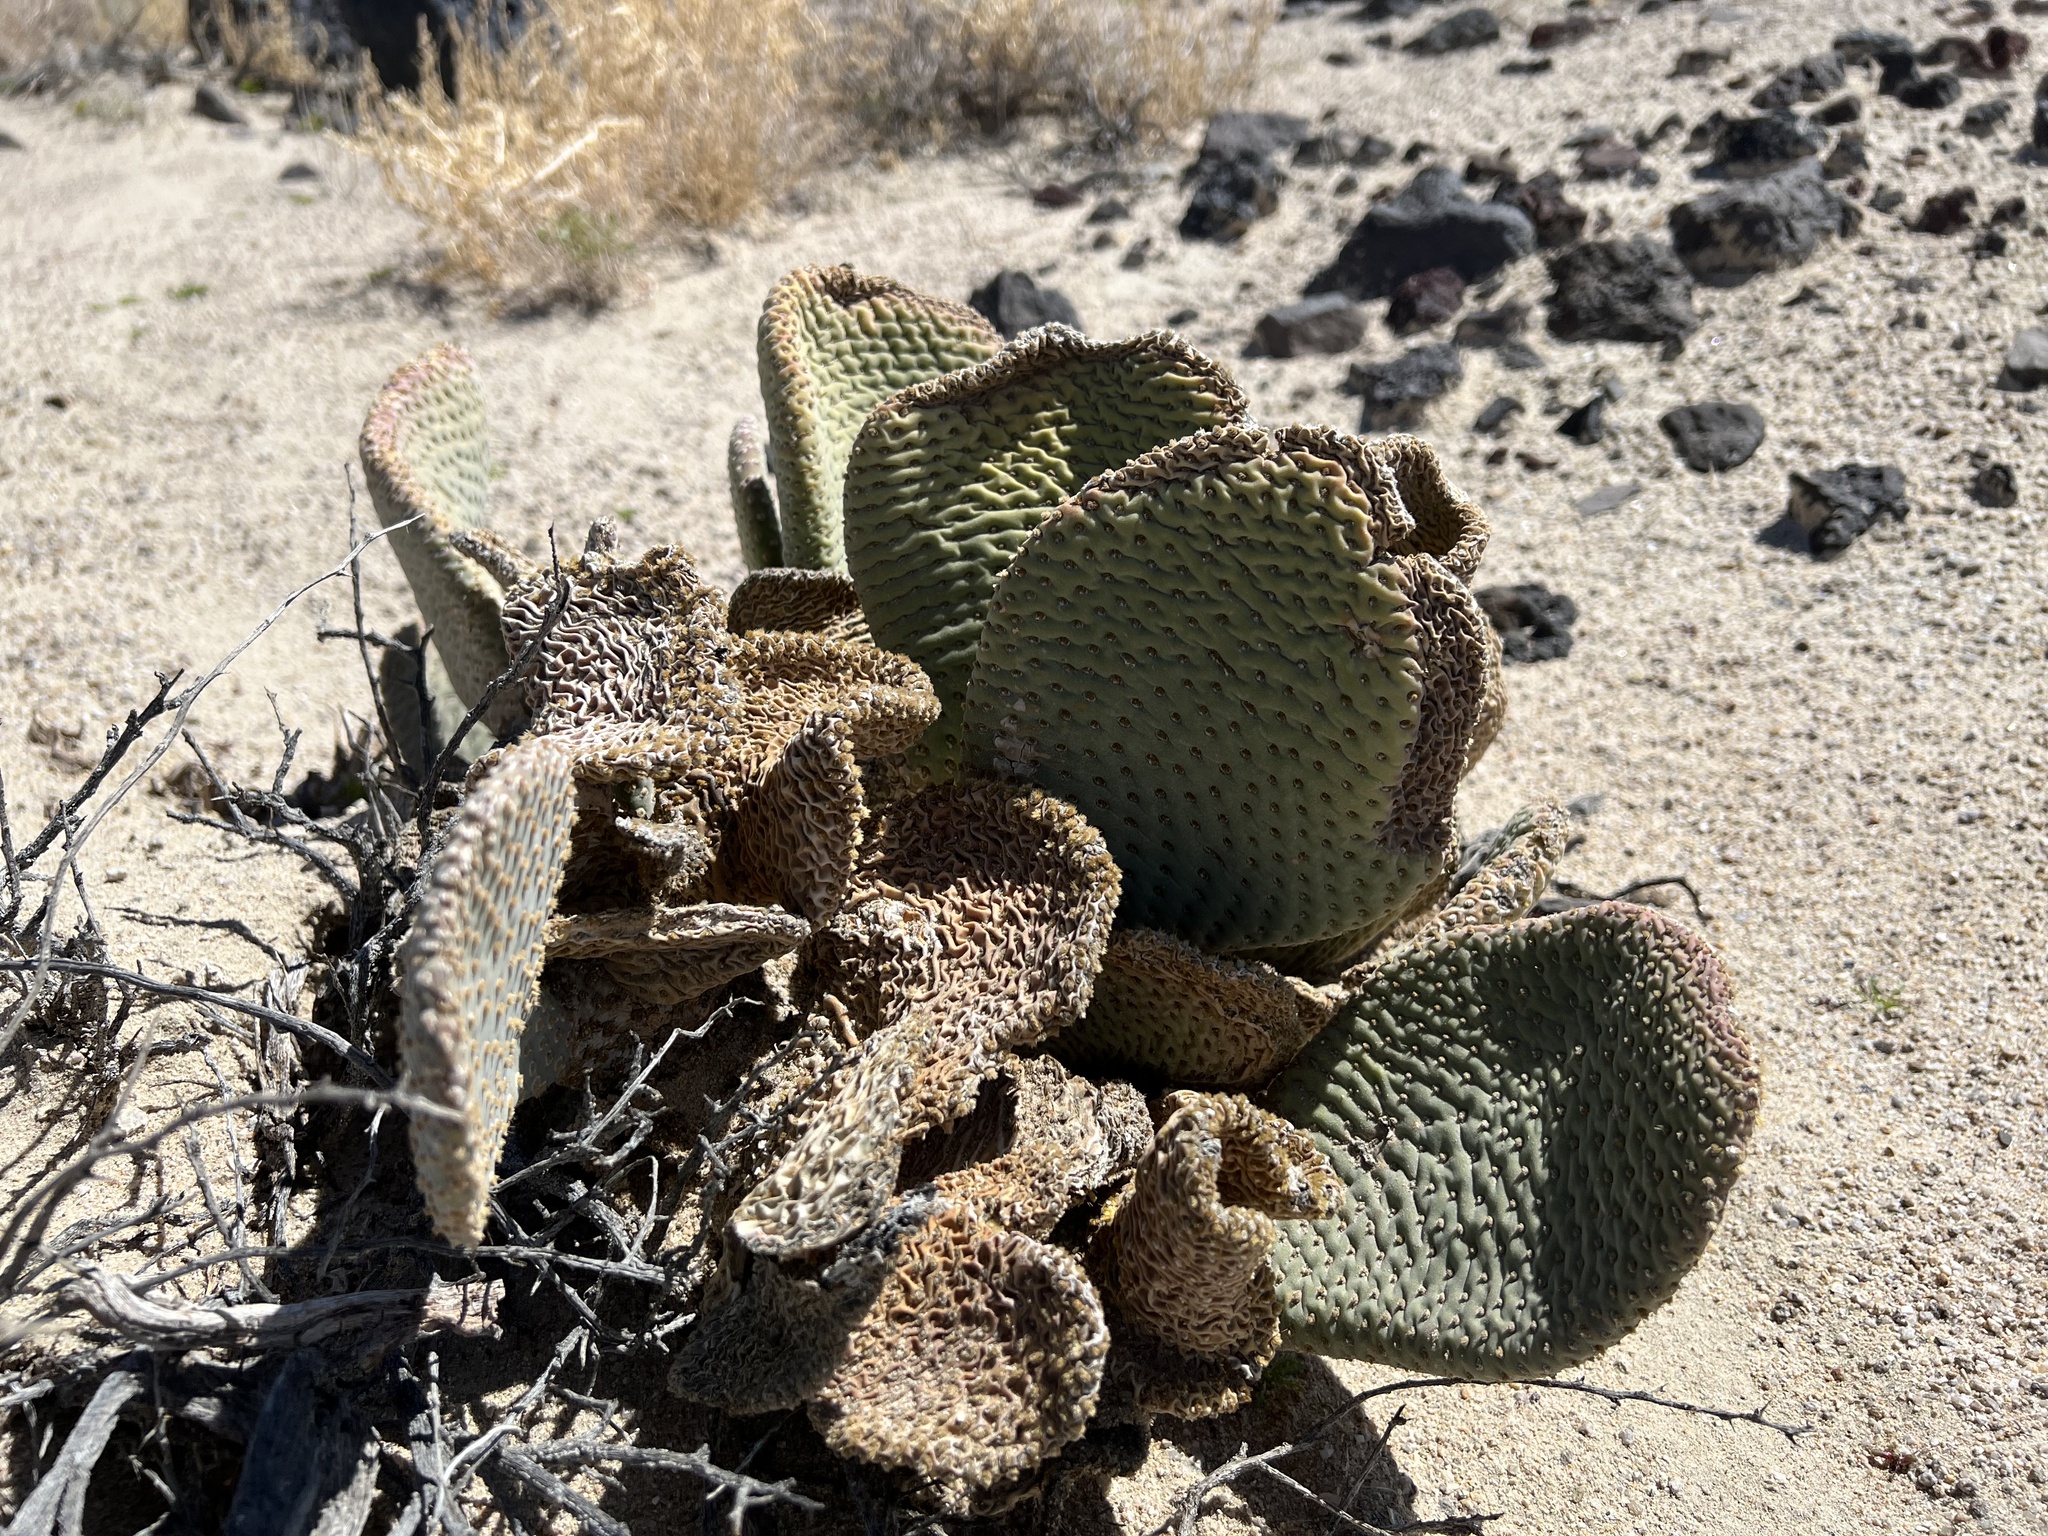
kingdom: Plantae
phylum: Tracheophyta
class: Magnoliopsida
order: Caryophyllales
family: Cactaceae
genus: Opuntia
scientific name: Opuntia basilaris
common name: Beavertail prickly-pear
